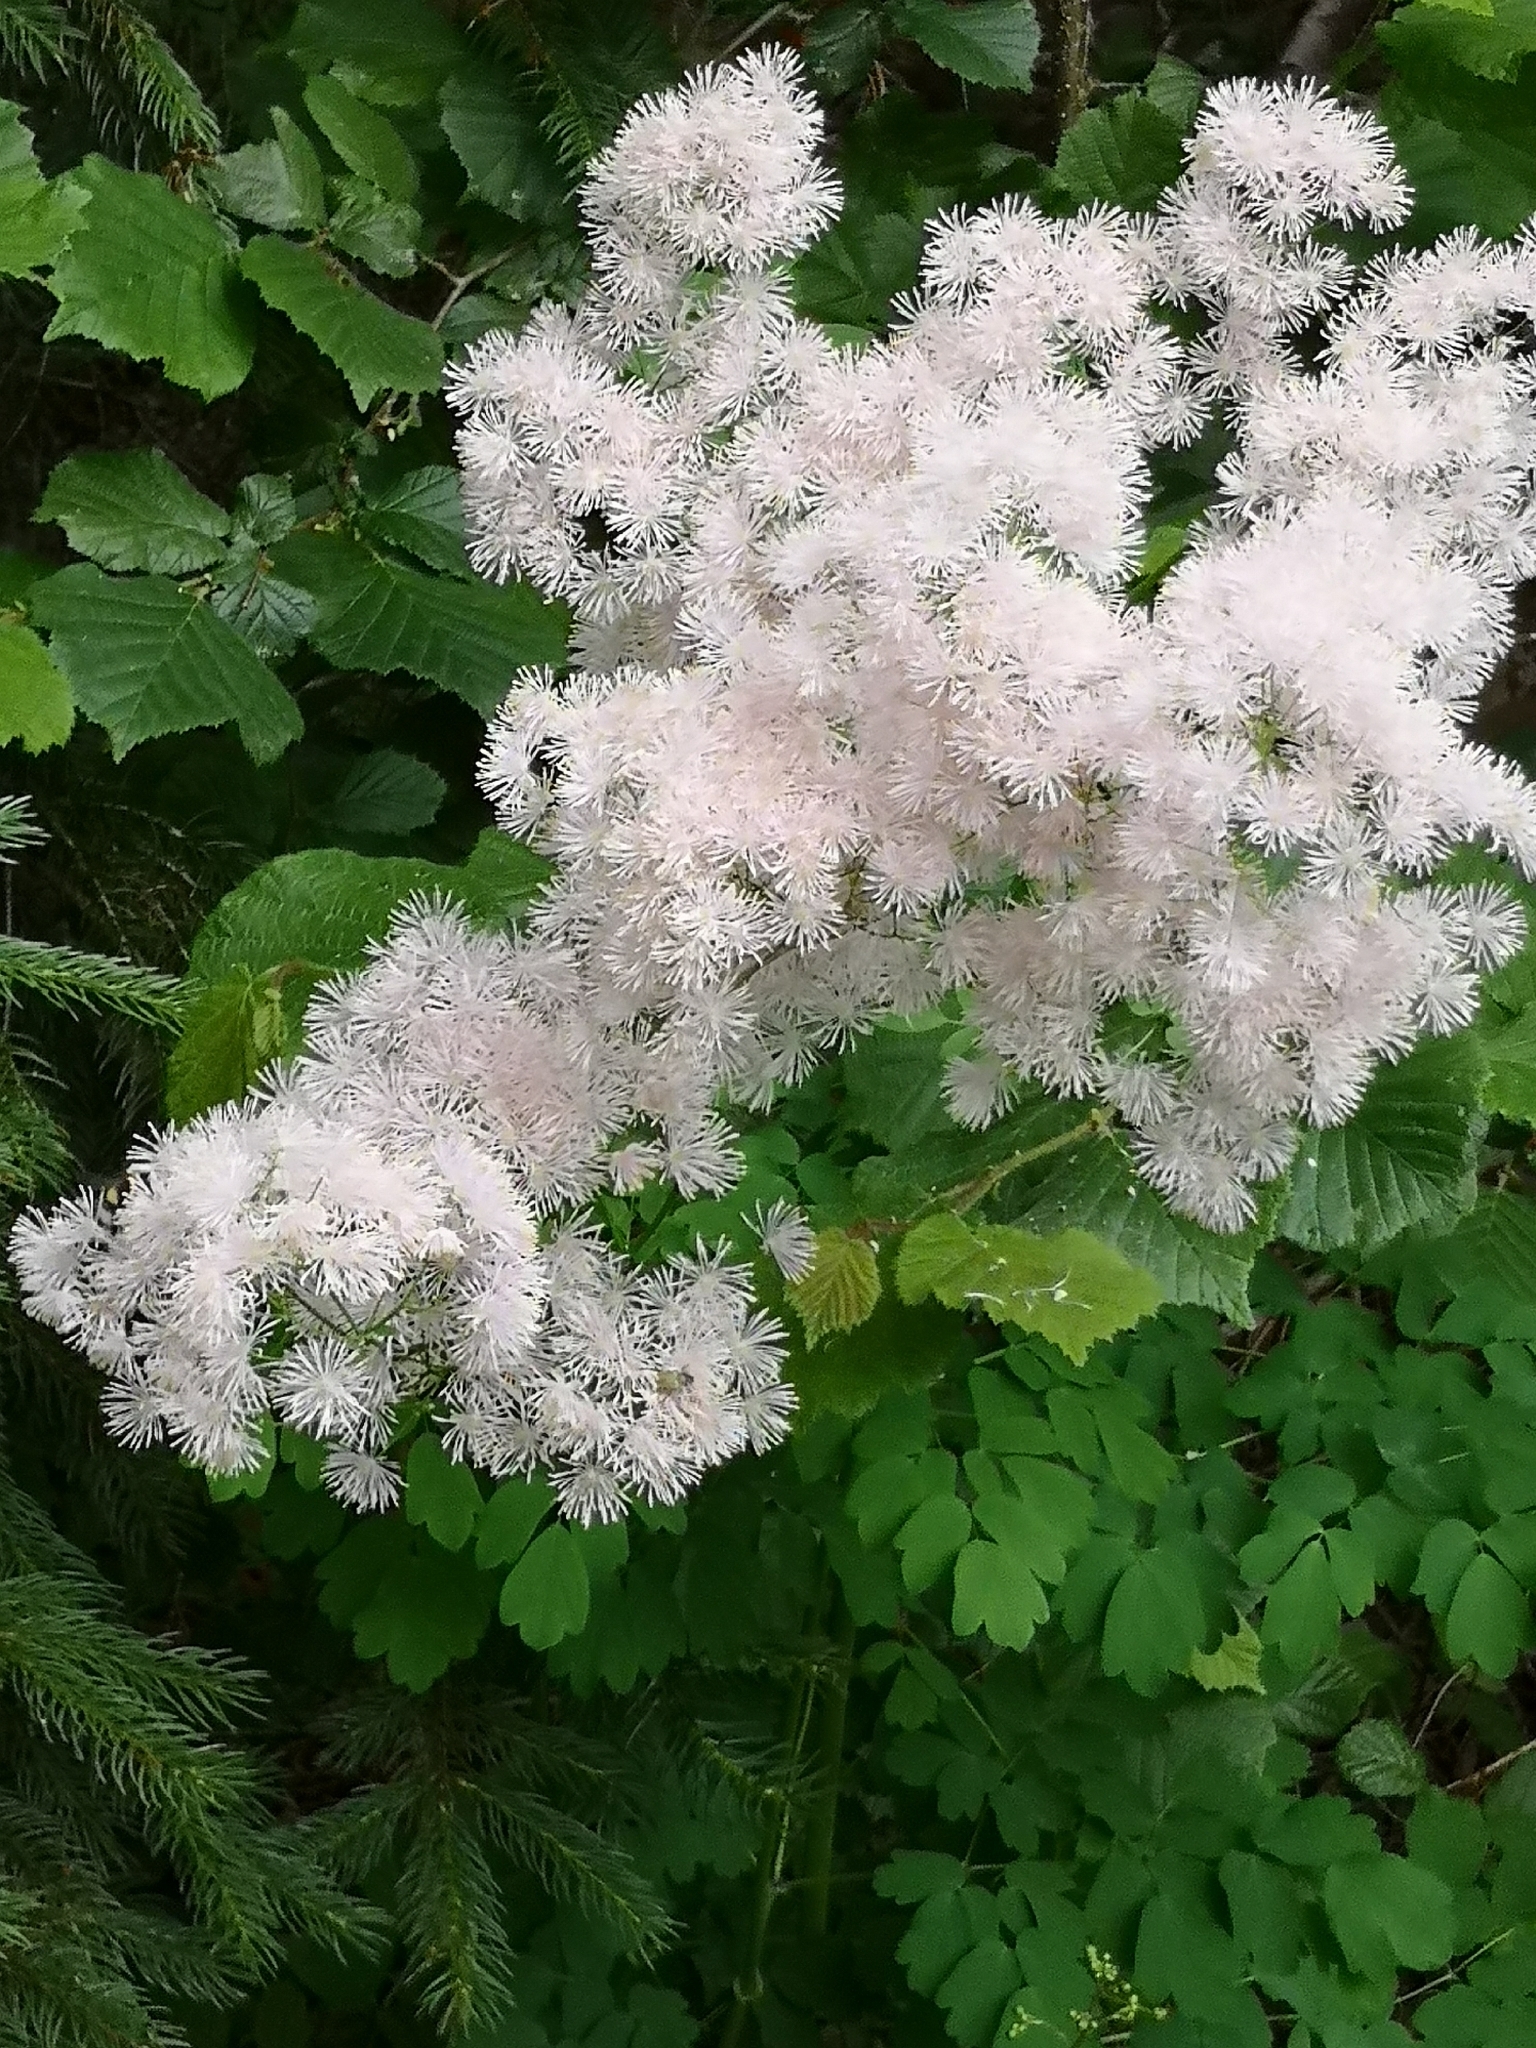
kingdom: Plantae
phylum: Tracheophyta
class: Magnoliopsida
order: Ranunculales
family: Ranunculaceae
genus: Thalictrum
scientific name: Thalictrum aquilegiifolium
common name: French meadow-rue
